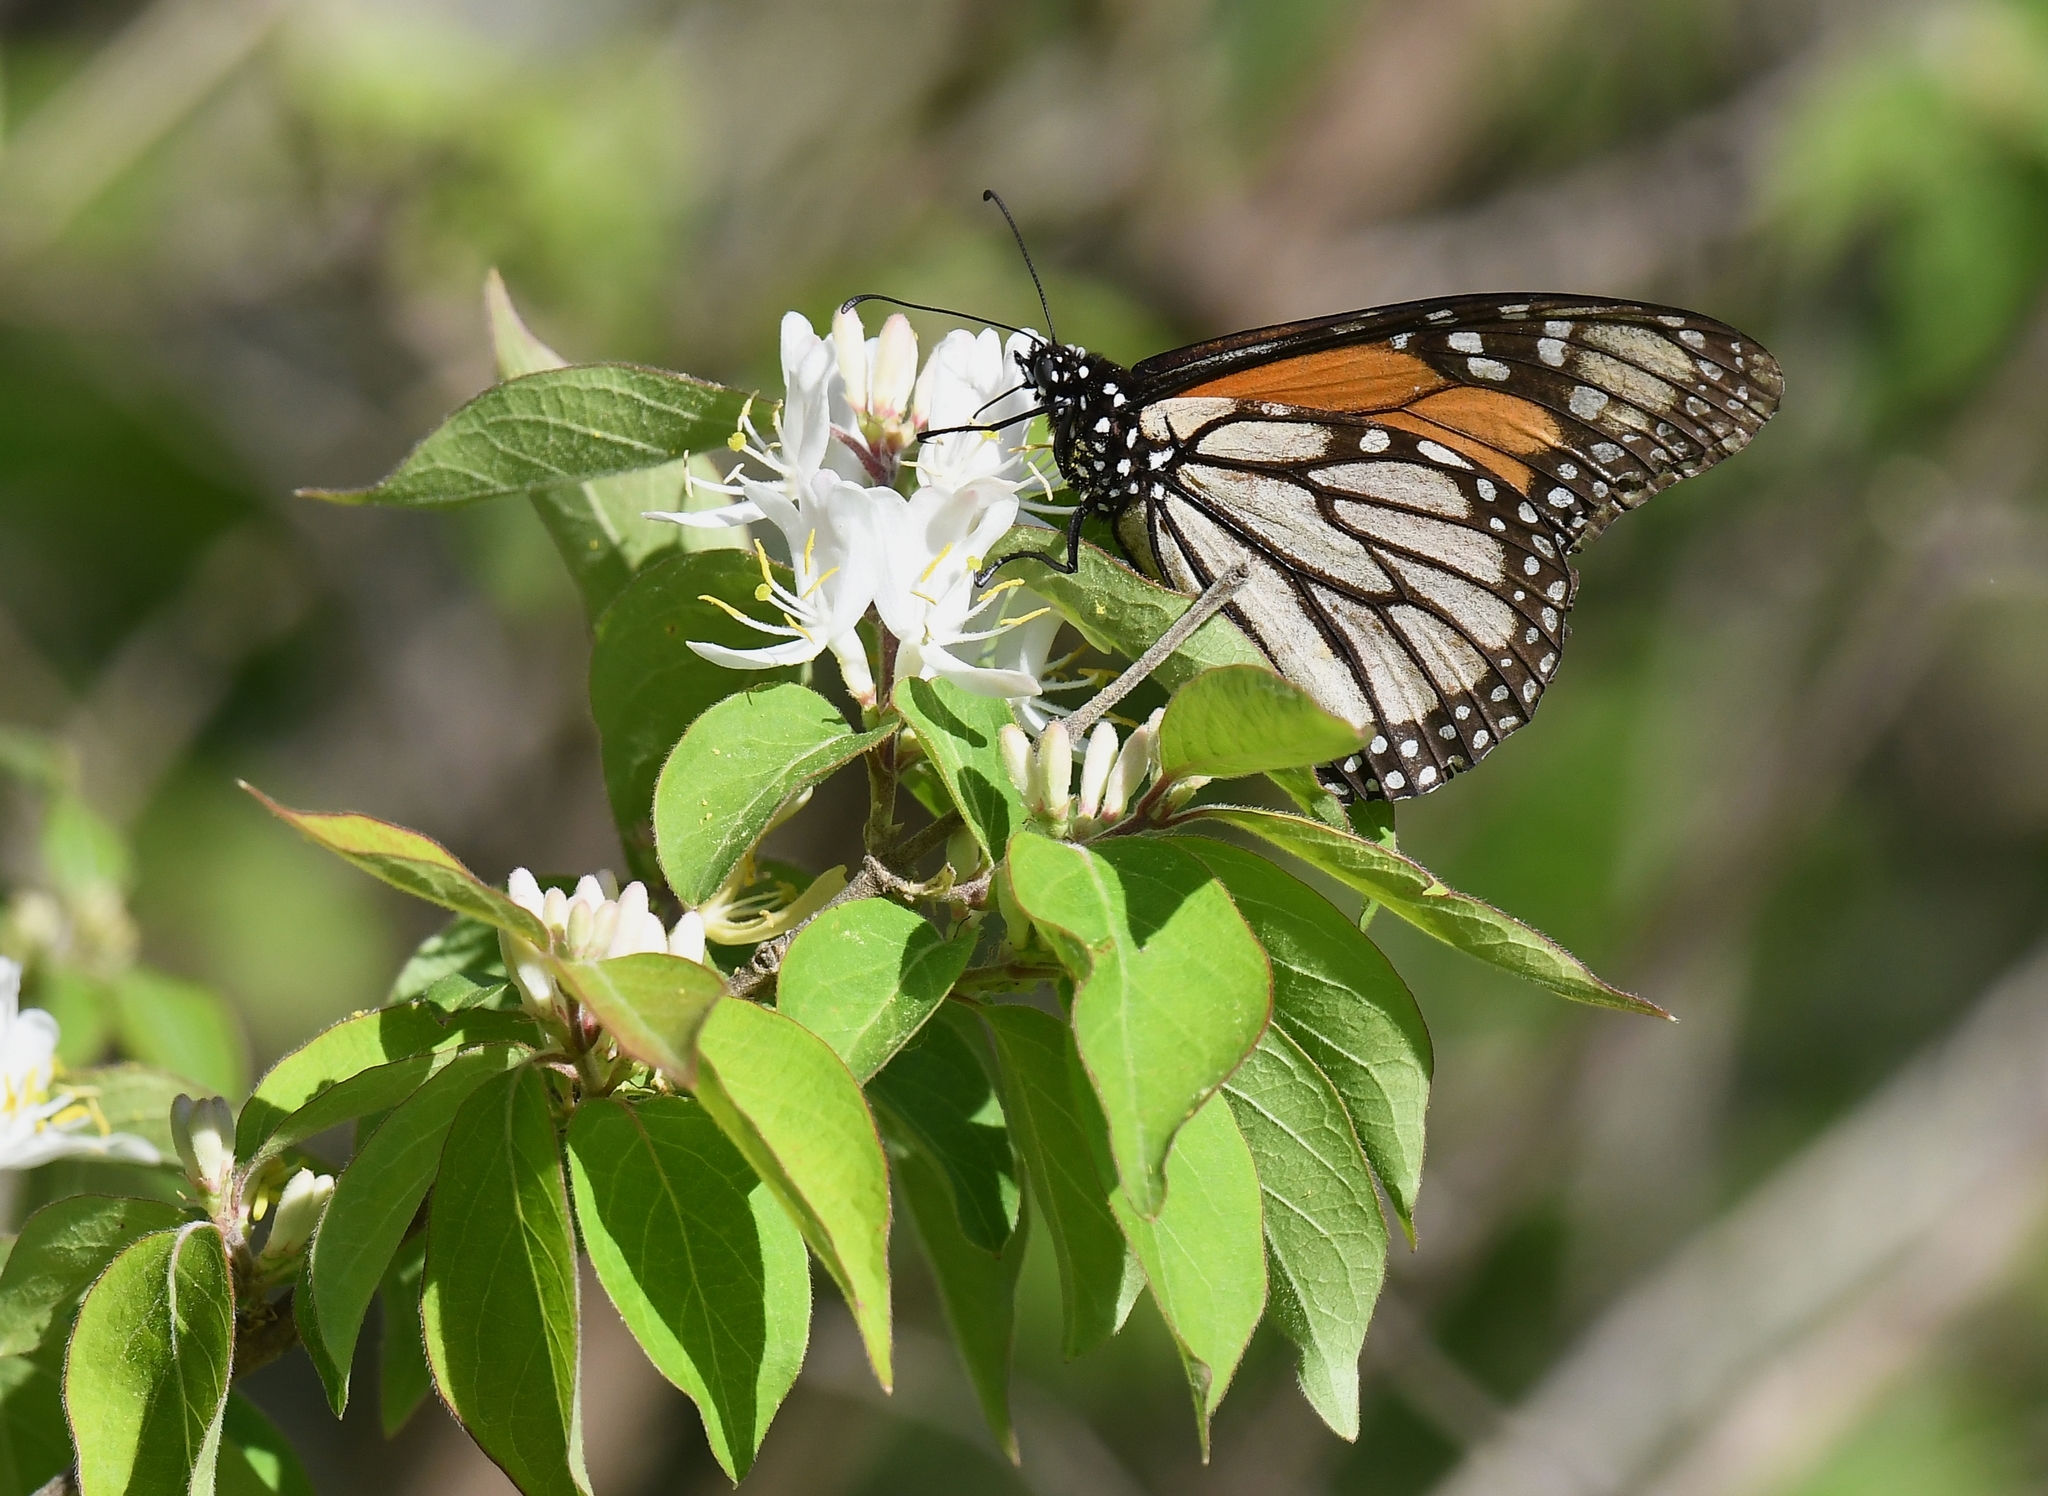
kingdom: Animalia
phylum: Arthropoda
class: Insecta
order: Lepidoptera
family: Nymphalidae
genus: Danaus
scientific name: Danaus plexippus
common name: Monarch
